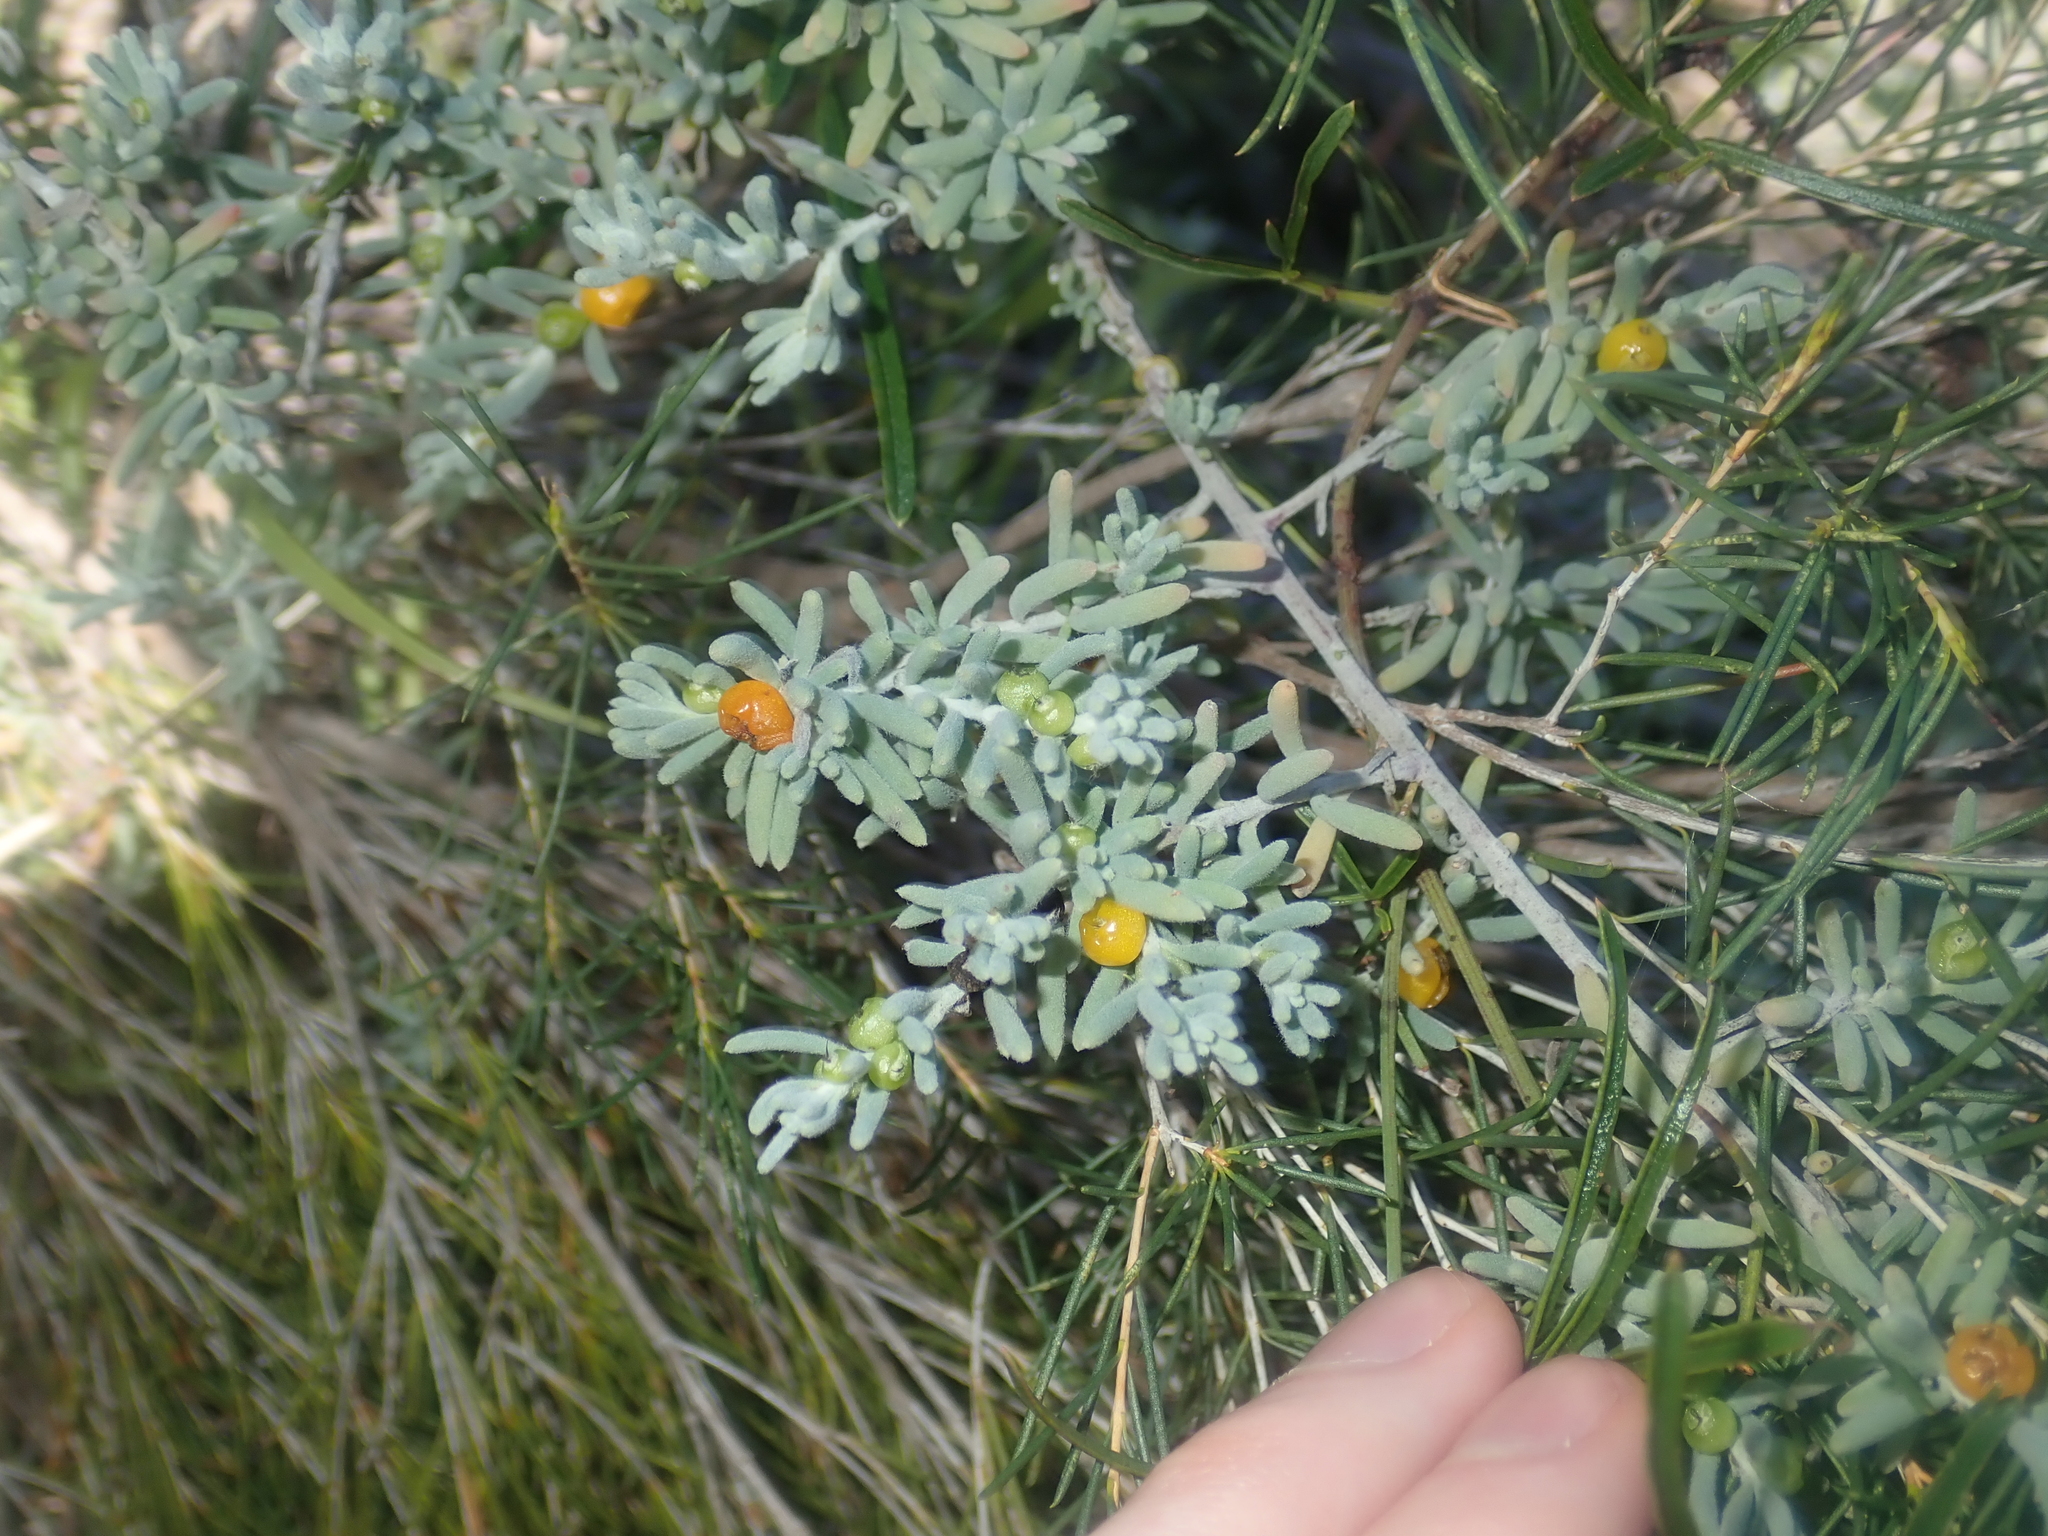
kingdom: Plantae
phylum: Tracheophyta
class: Magnoliopsida
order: Caryophyllales
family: Amaranthaceae
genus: Enchylaena
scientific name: Enchylaena tomentosa
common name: Ruby saltbush
